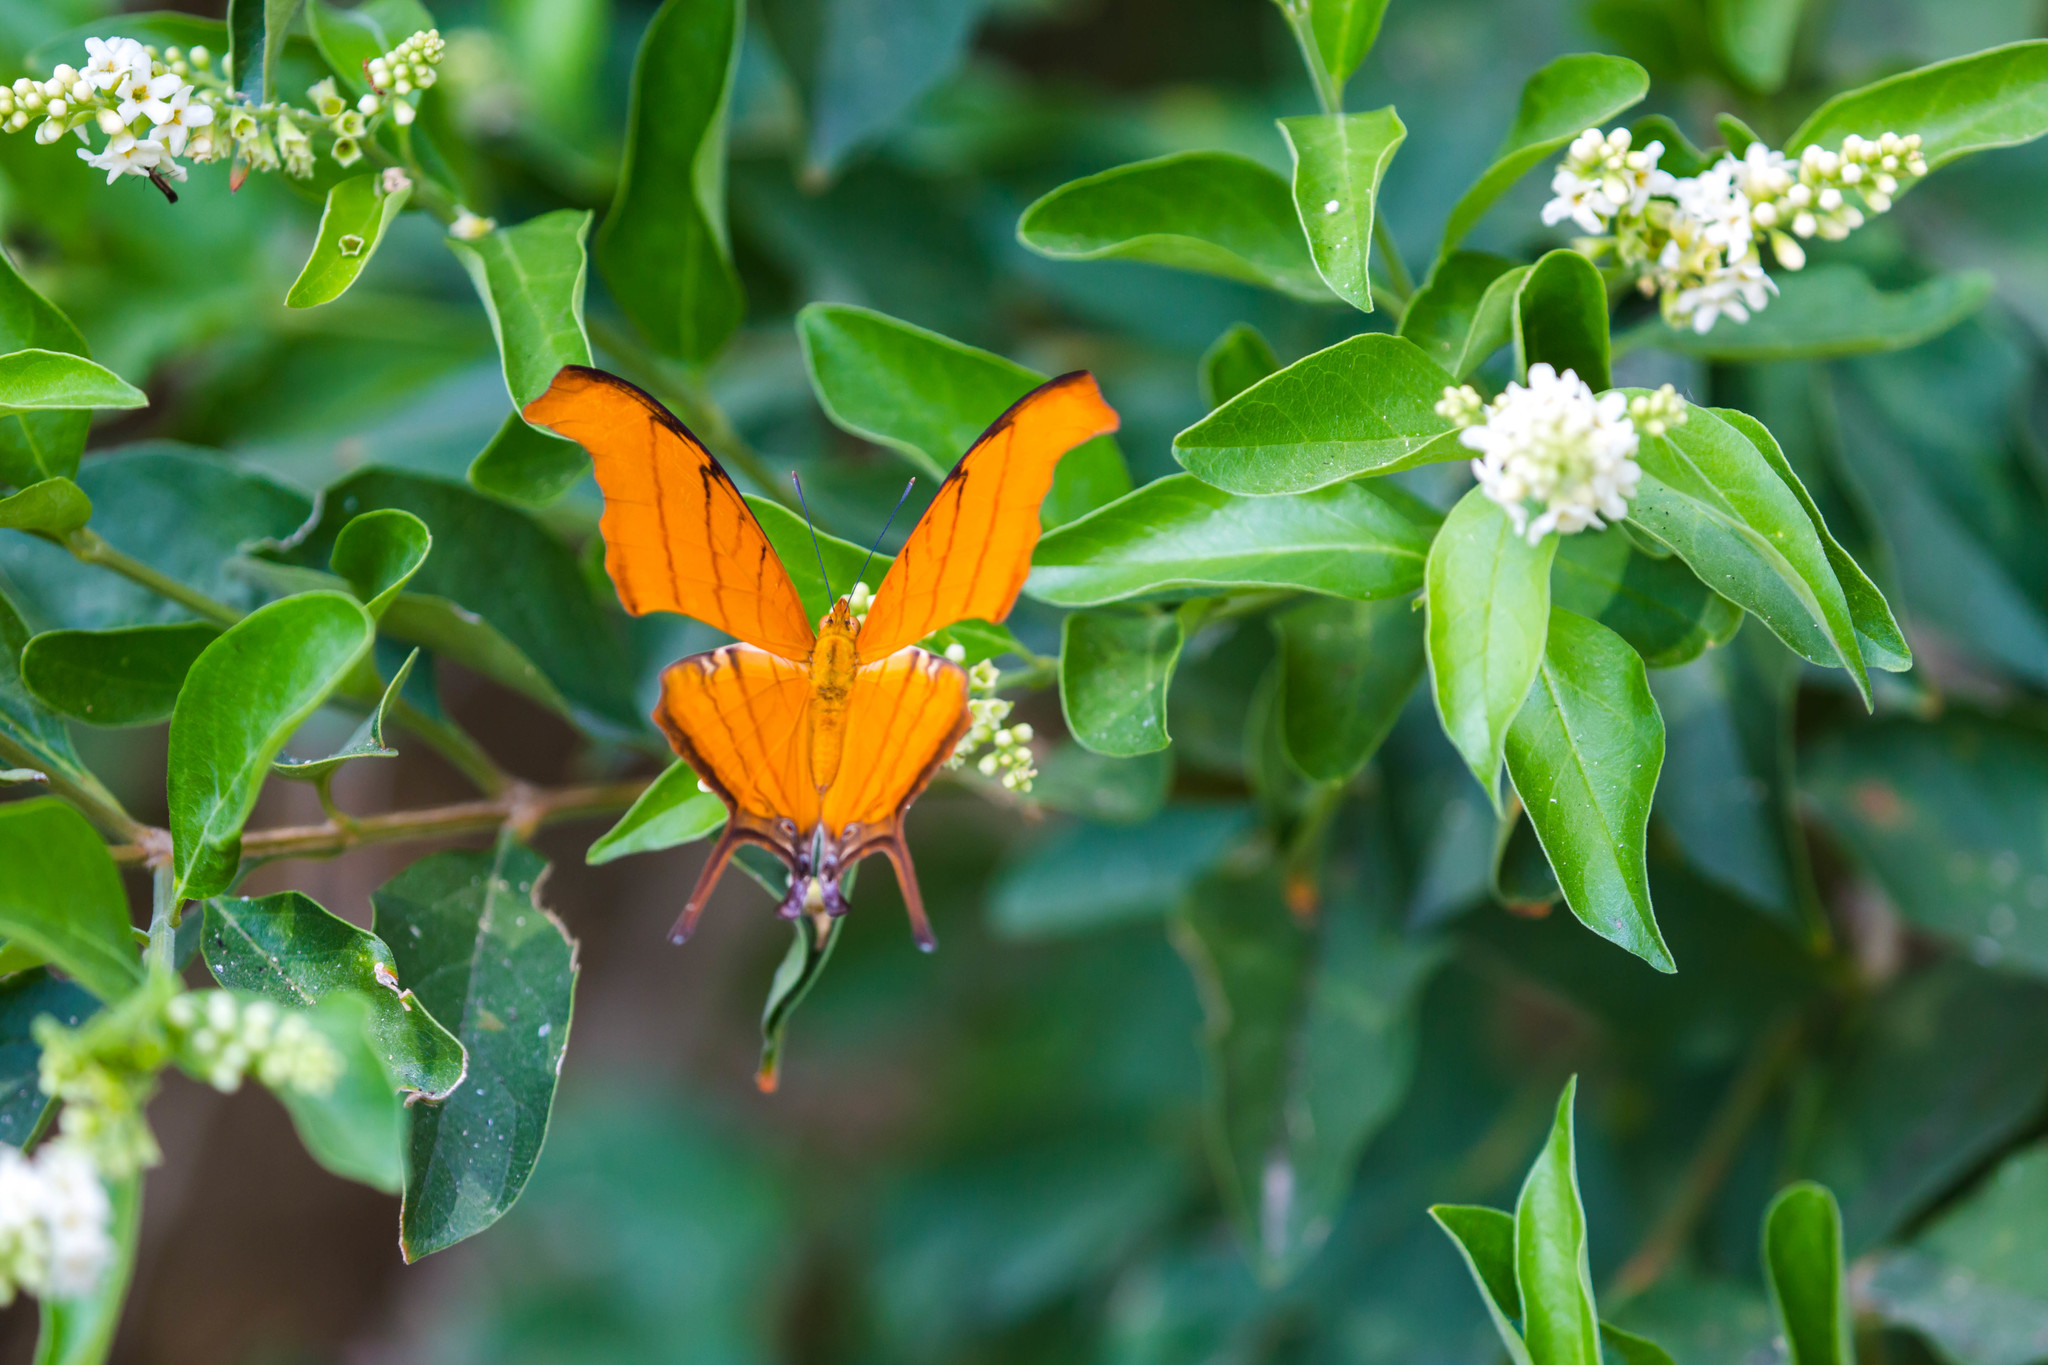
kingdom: Animalia
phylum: Arthropoda
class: Insecta
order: Lepidoptera
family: Nymphalidae
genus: Marpesia
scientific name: Marpesia petreus
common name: Red dagger wing
